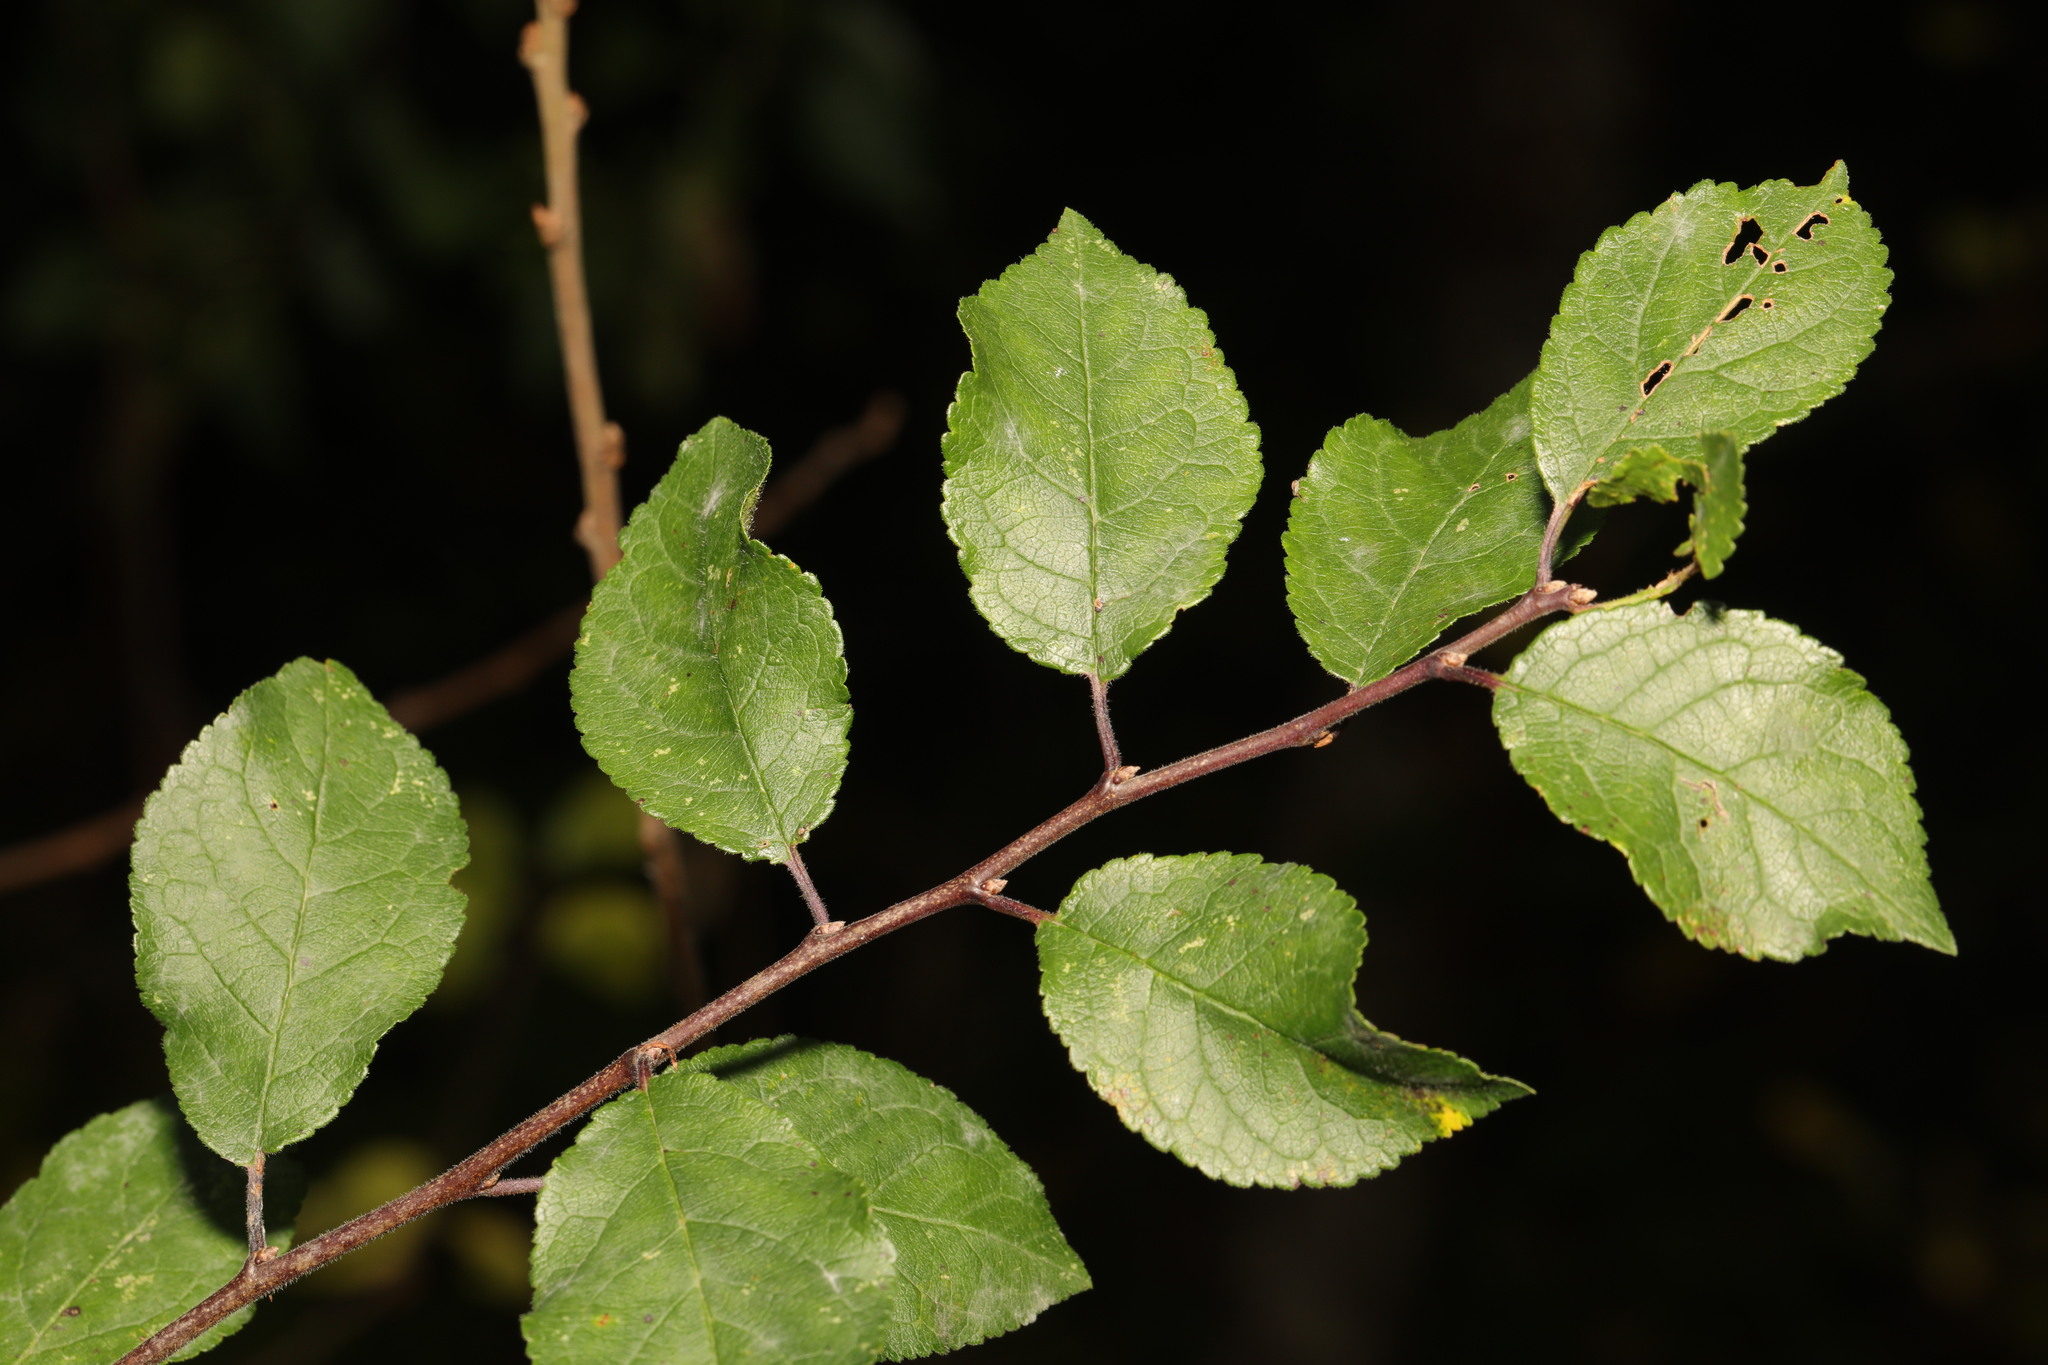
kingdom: Plantae
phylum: Tracheophyta
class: Magnoliopsida
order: Rosales
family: Rosaceae
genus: Prunus
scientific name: Prunus spinosa
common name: Blackthorn
